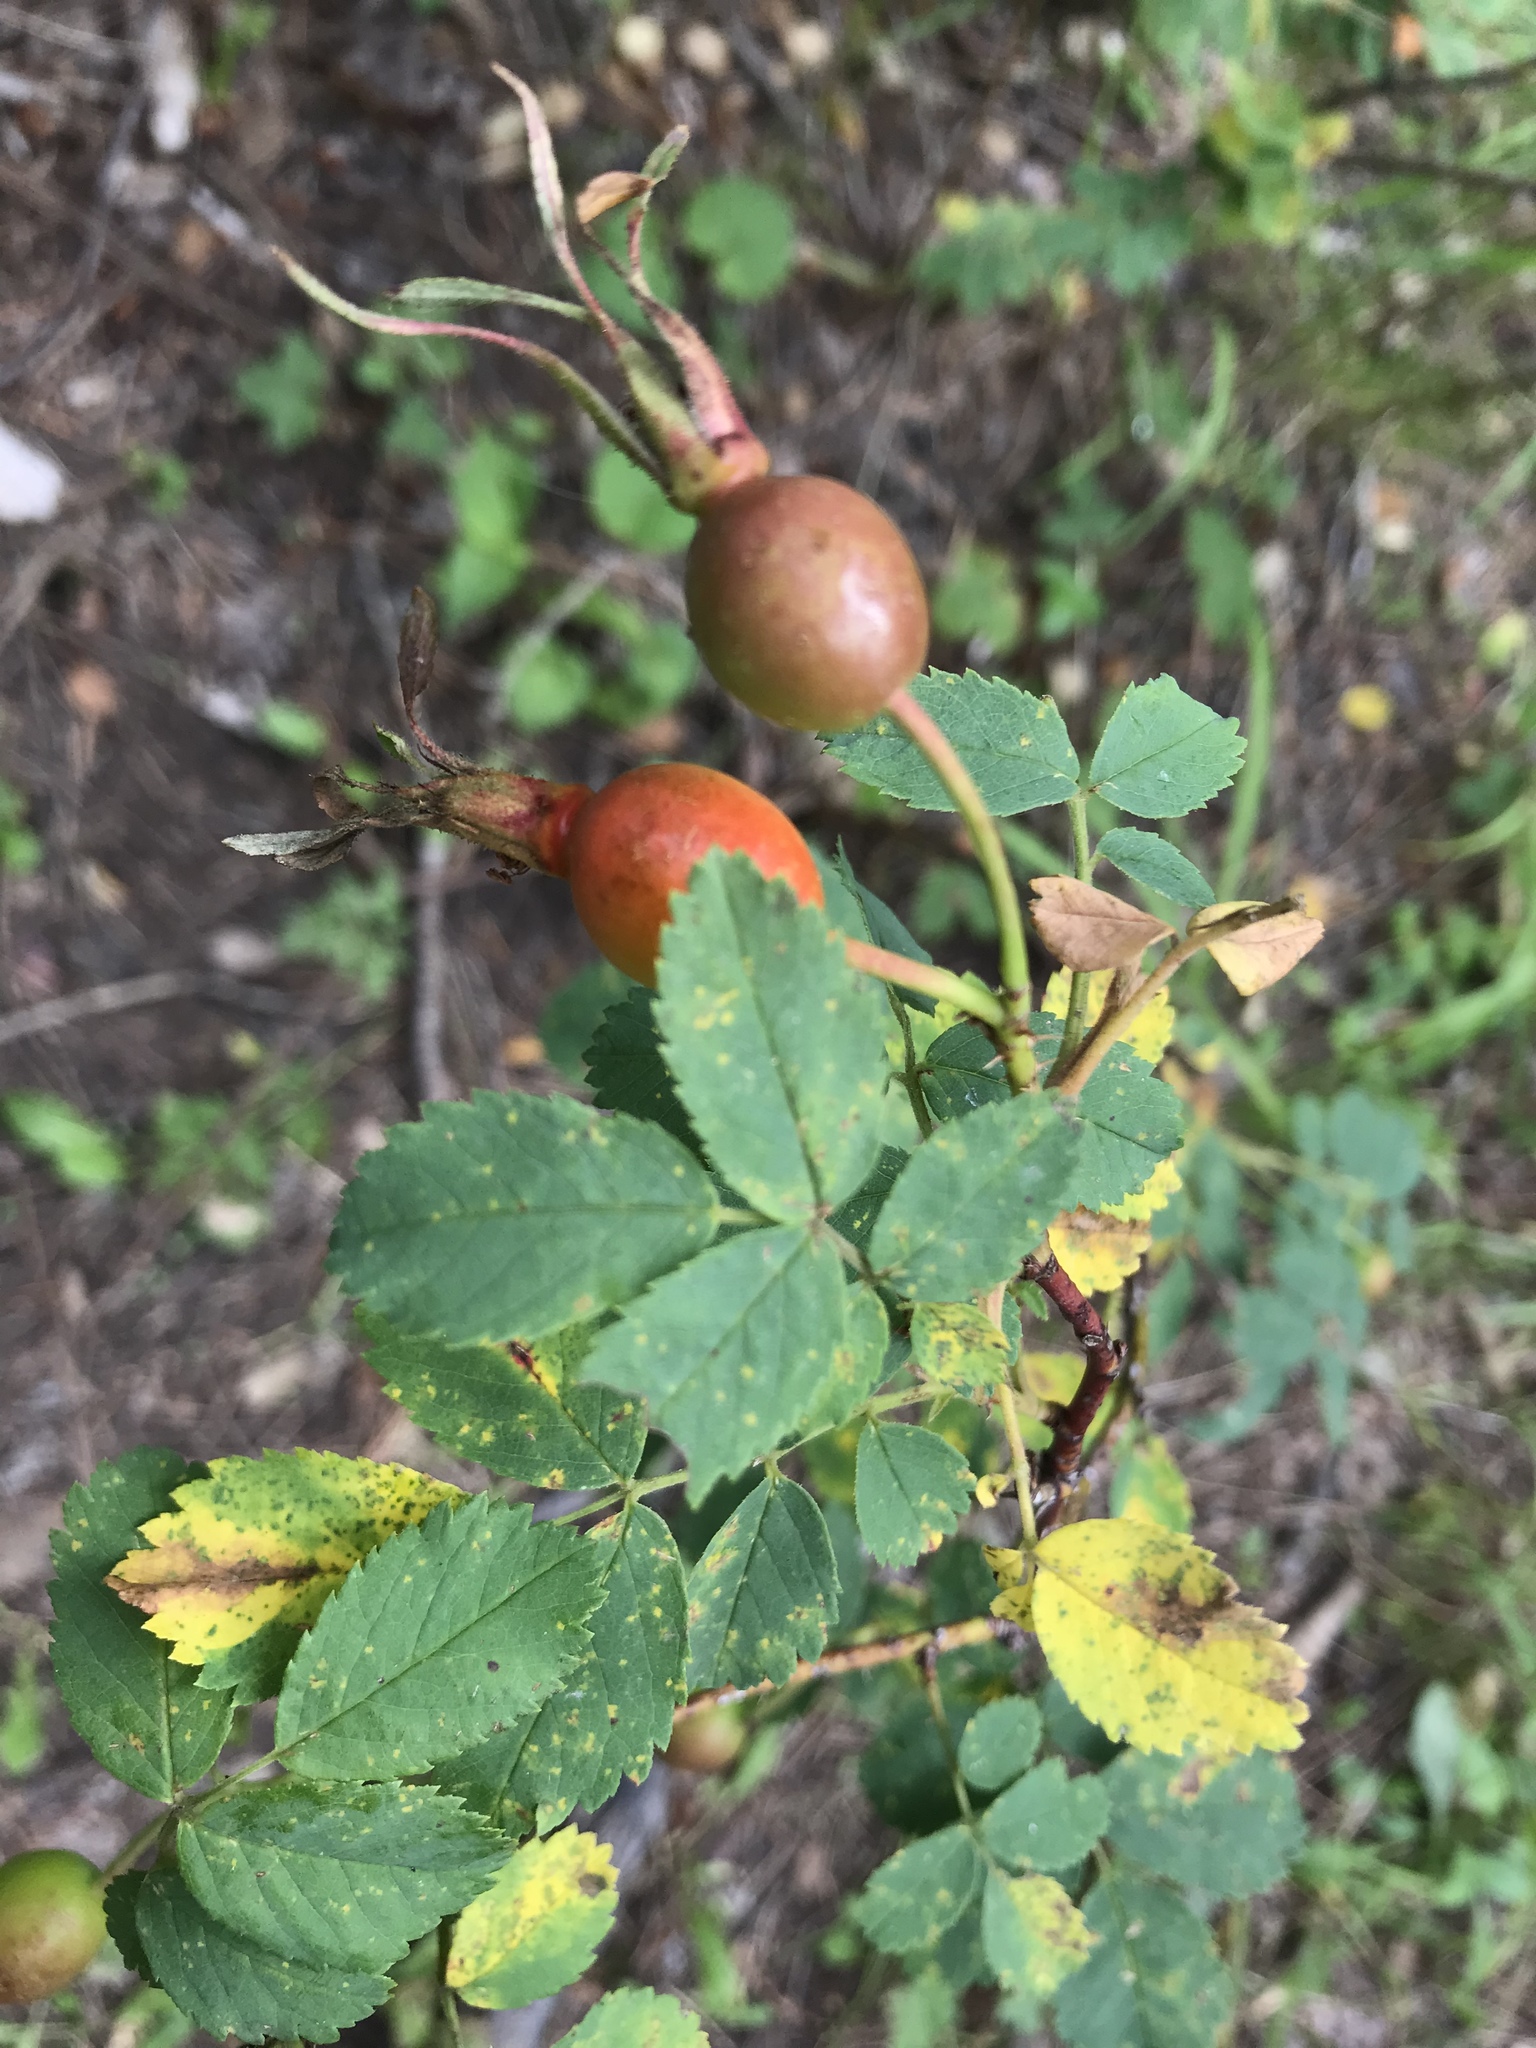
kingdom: Plantae
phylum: Tracheophyta
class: Magnoliopsida
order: Rosales
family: Rosaceae
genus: Rosa
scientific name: Rosa woodsii
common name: Woods's rose
